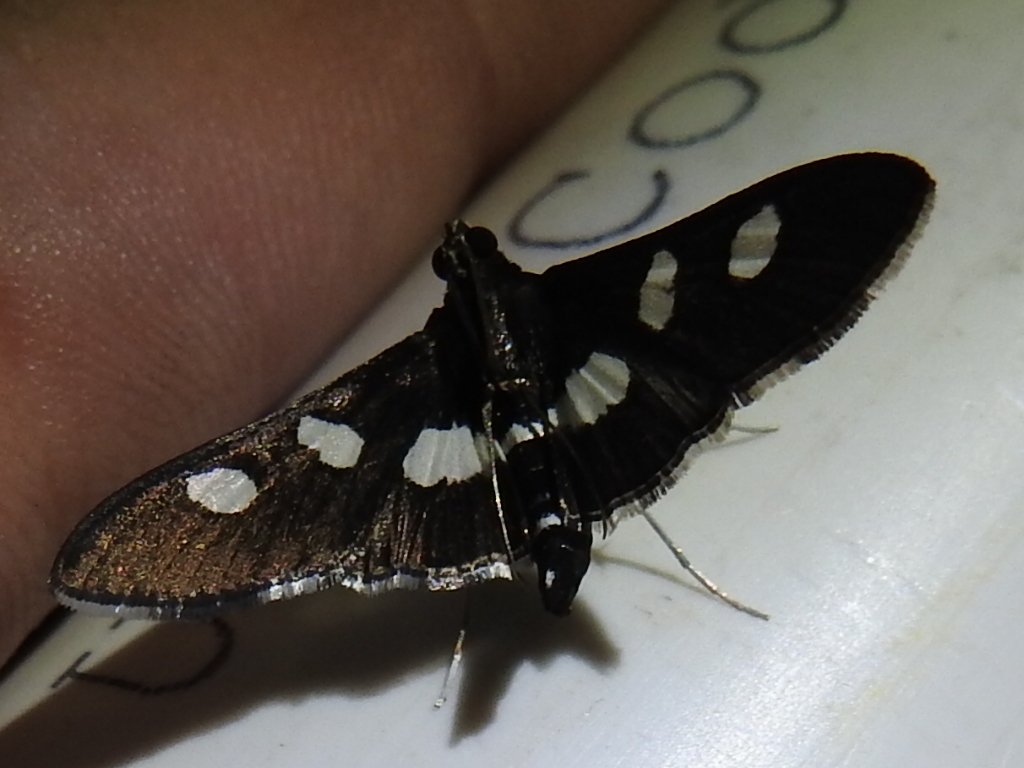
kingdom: Animalia
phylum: Arthropoda
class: Insecta
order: Lepidoptera
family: Crambidae
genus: Desmia
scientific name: Desmia
